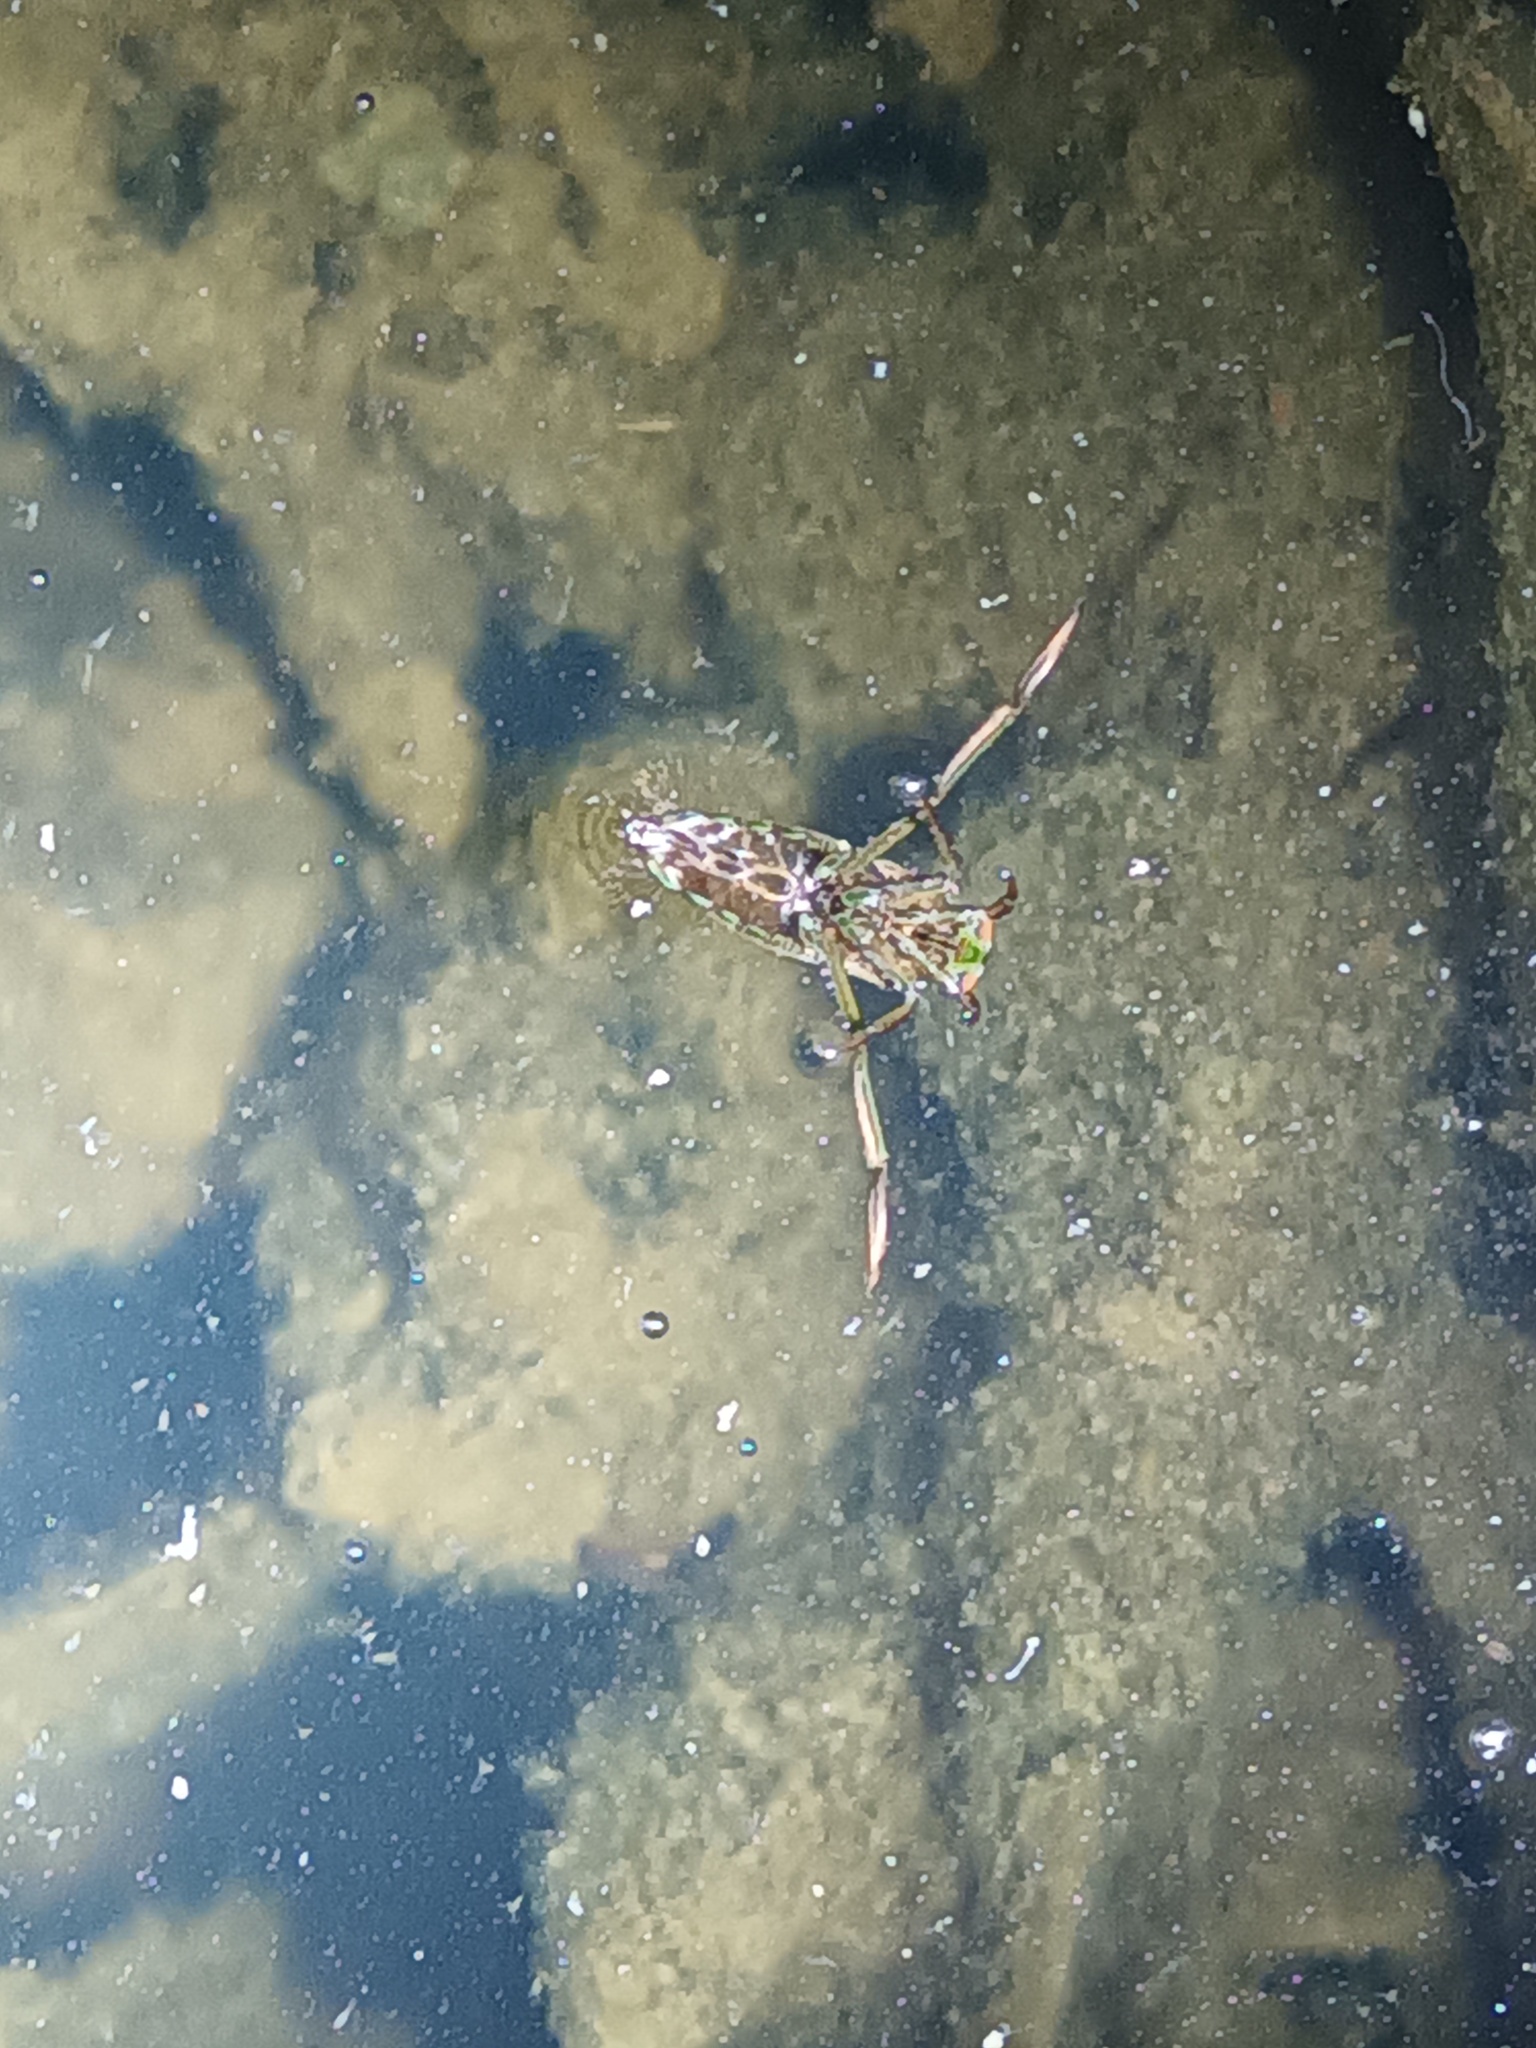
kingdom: Animalia
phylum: Arthropoda
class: Insecta
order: Hemiptera
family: Notonectidae
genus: Notonecta
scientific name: Notonecta
